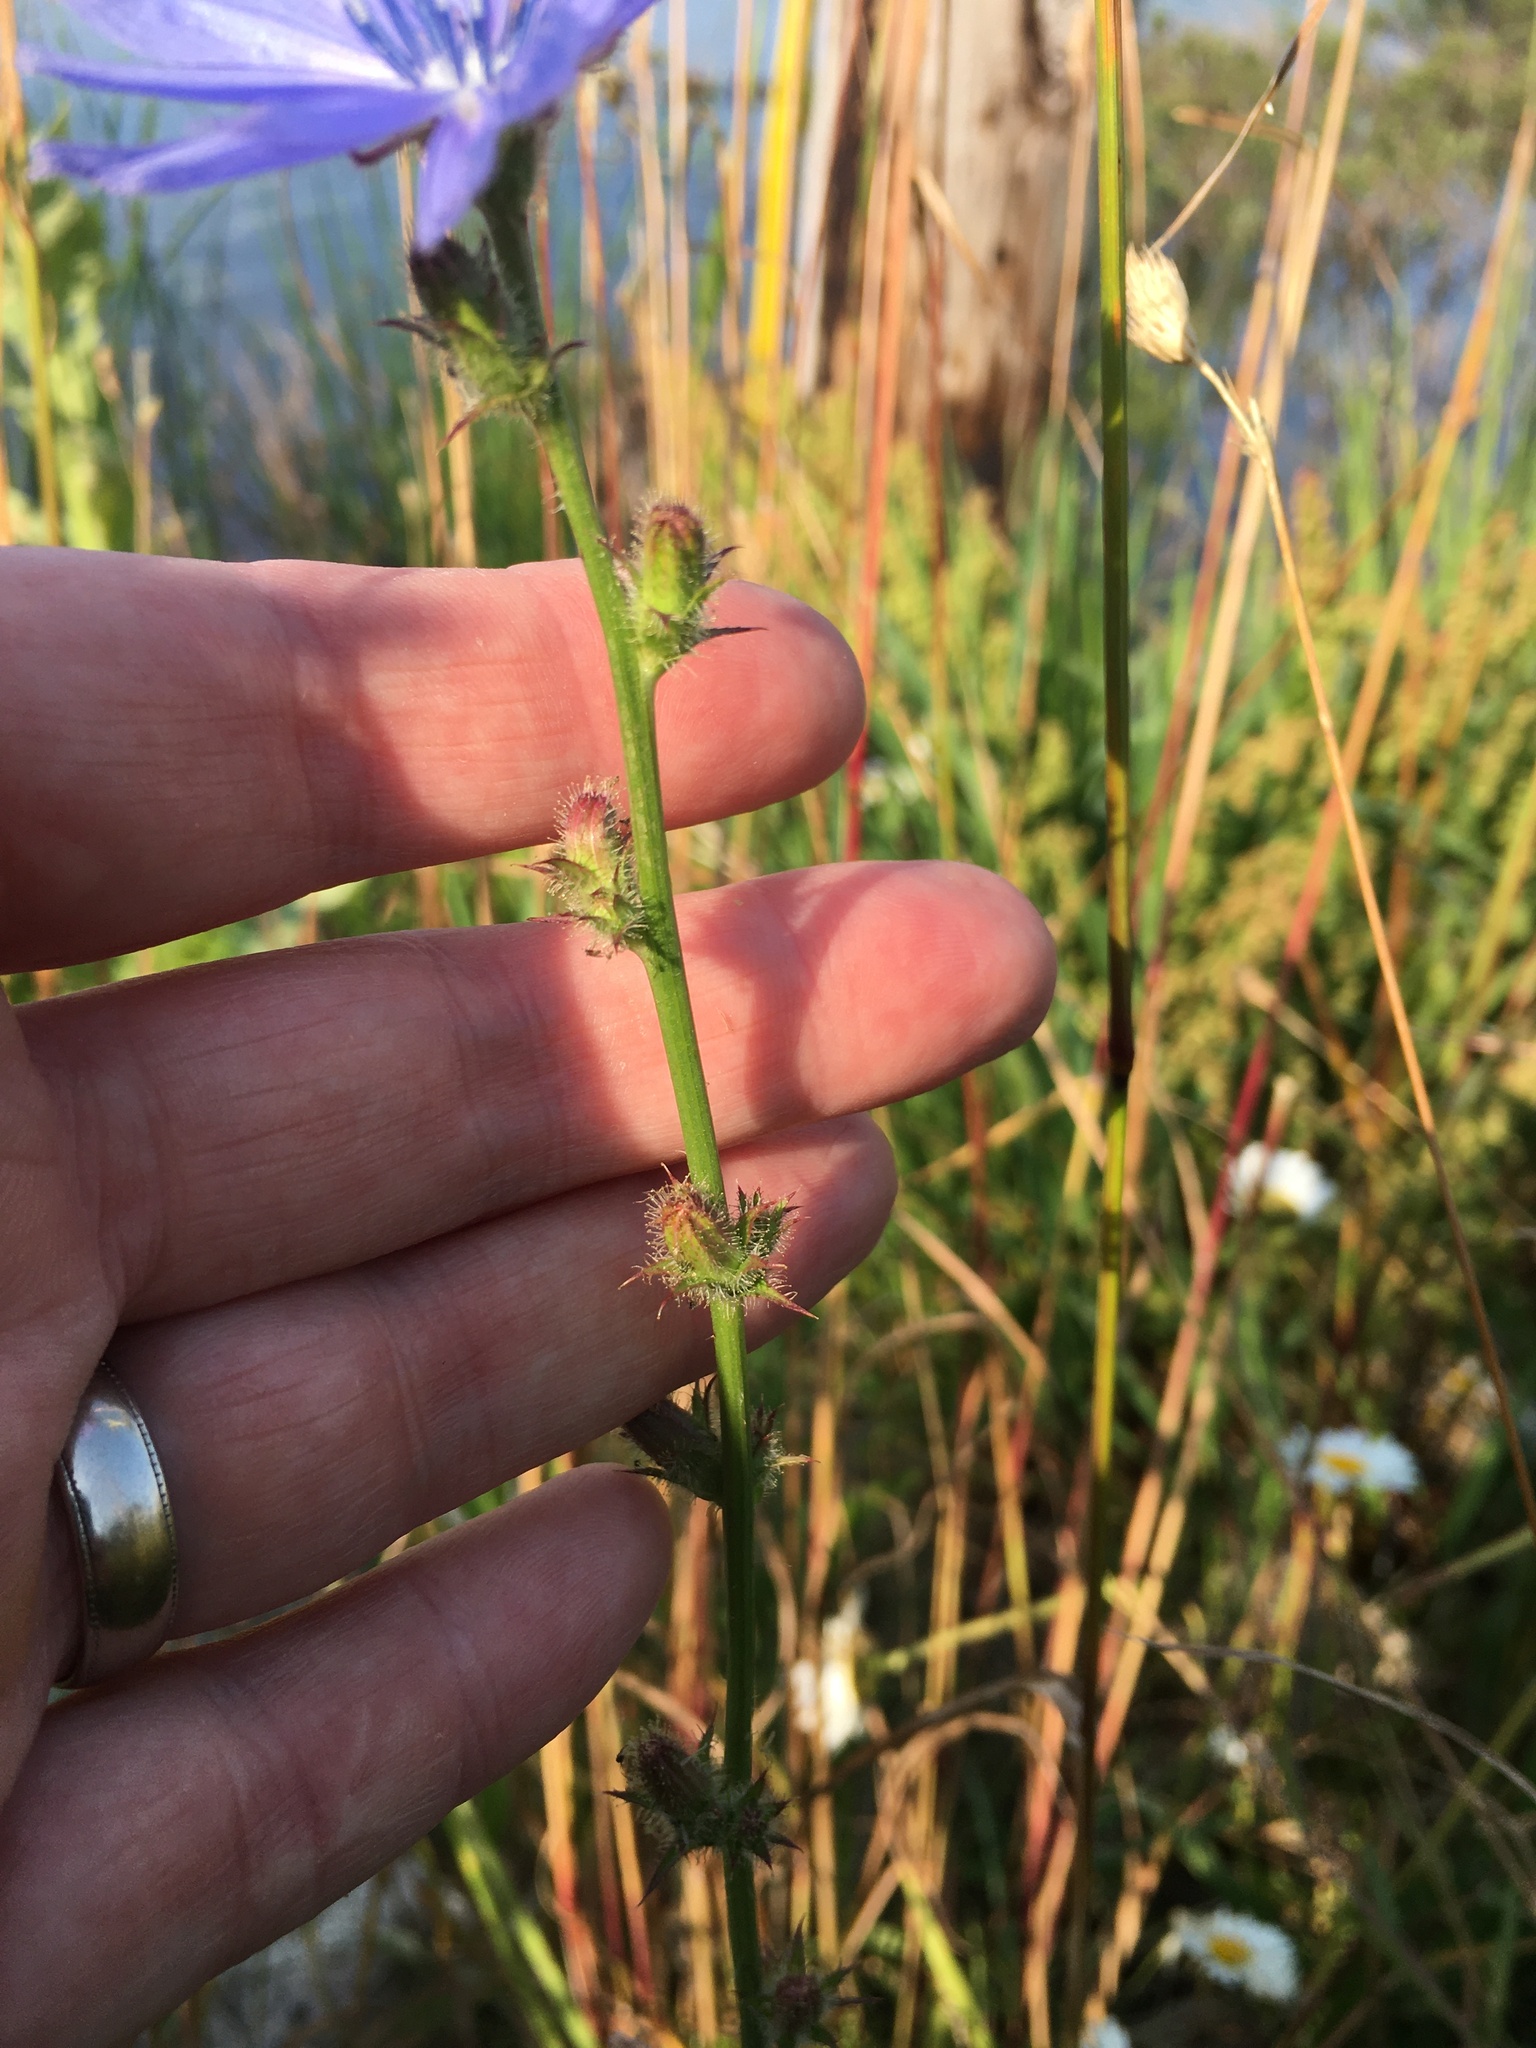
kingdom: Plantae
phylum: Tracheophyta
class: Magnoliopsida
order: Asterales
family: Asteraceae
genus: Cichorium
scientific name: Cichorium intybus
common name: Chicory
